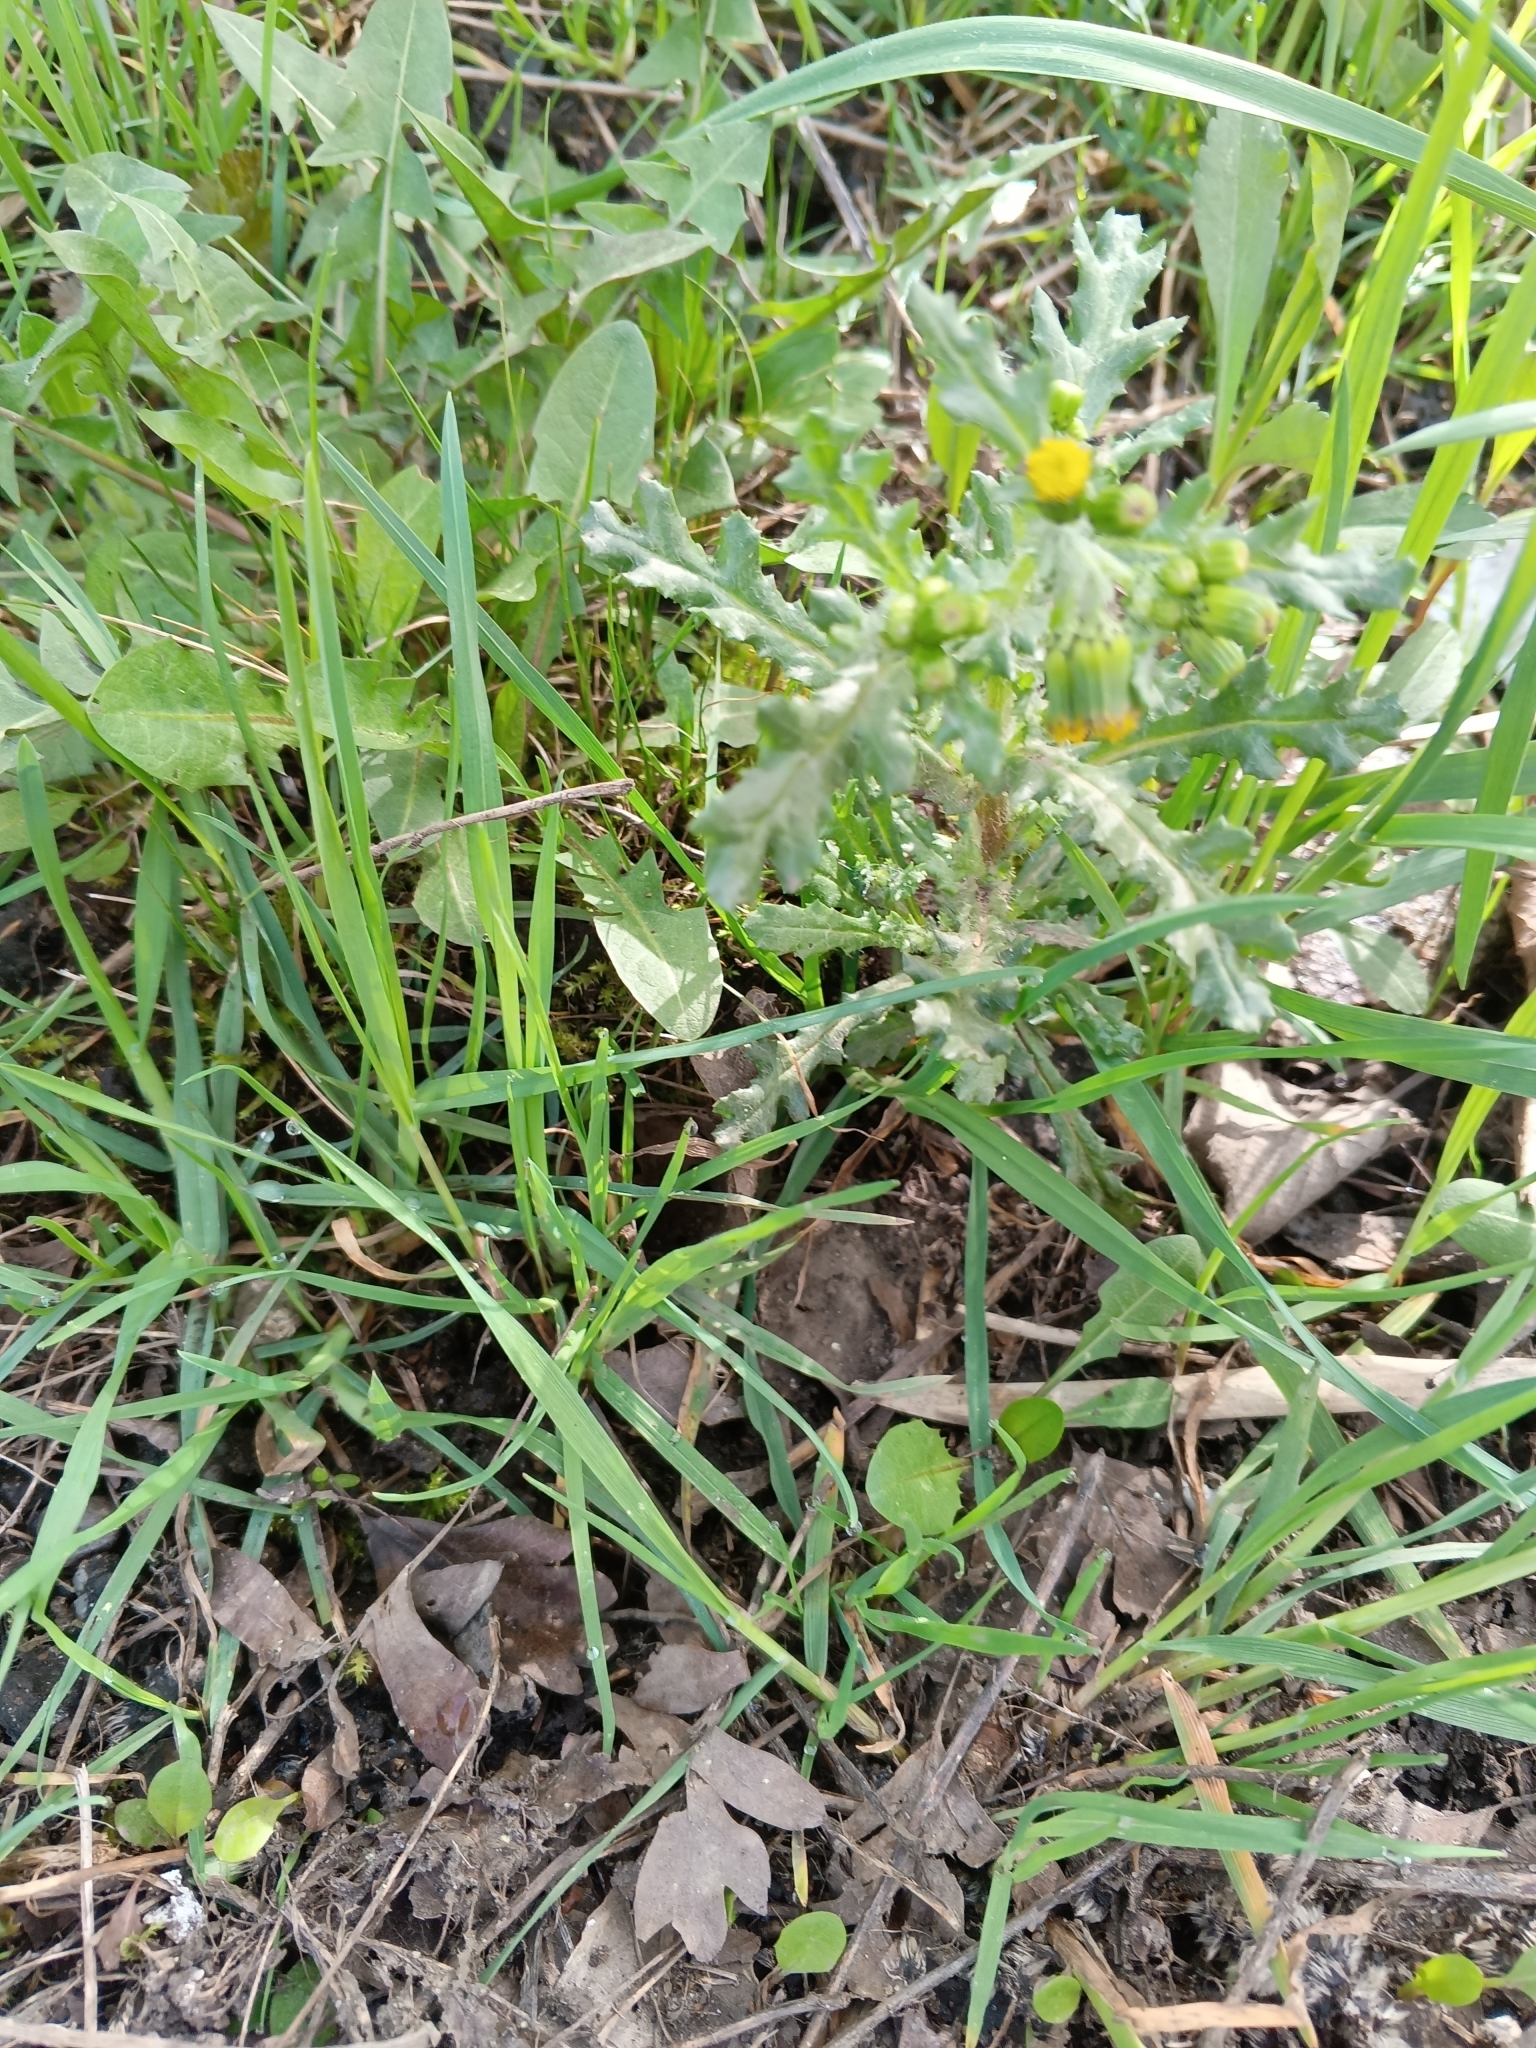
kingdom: Plantae
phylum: Tracheophyta
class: Magnoliopsida
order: Asterales
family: Asteraceae
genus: Senecio
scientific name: Senecio vulgaris
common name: Old-man-in-the-spring
